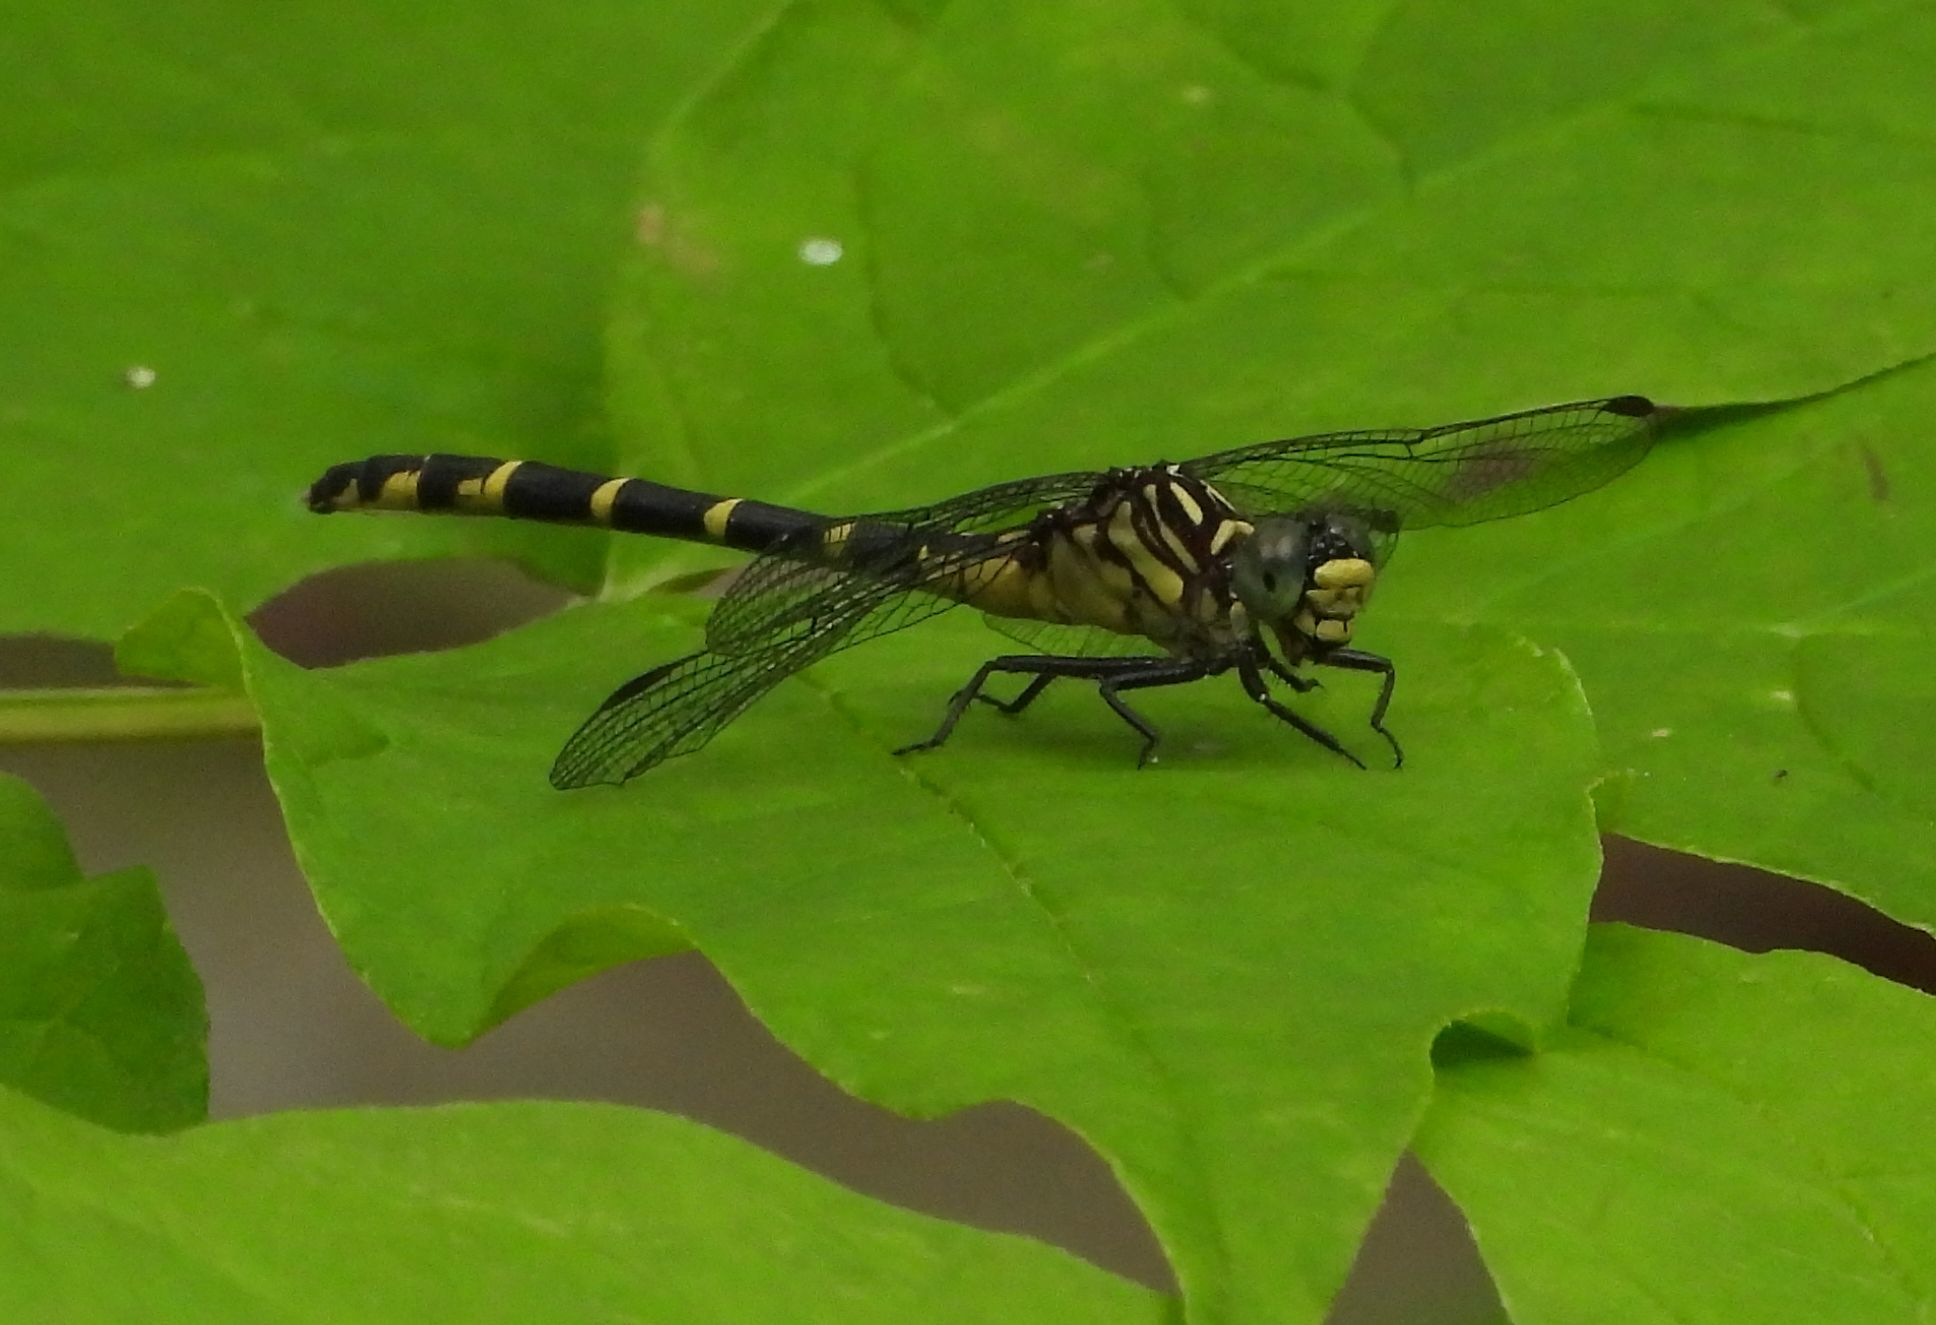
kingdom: Animalia
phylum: Arthropoda
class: Insecta
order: Odonata
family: Gomphidae
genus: Stylogomphus
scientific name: Stylogomphus albistylus
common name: Eastern least clubtail
